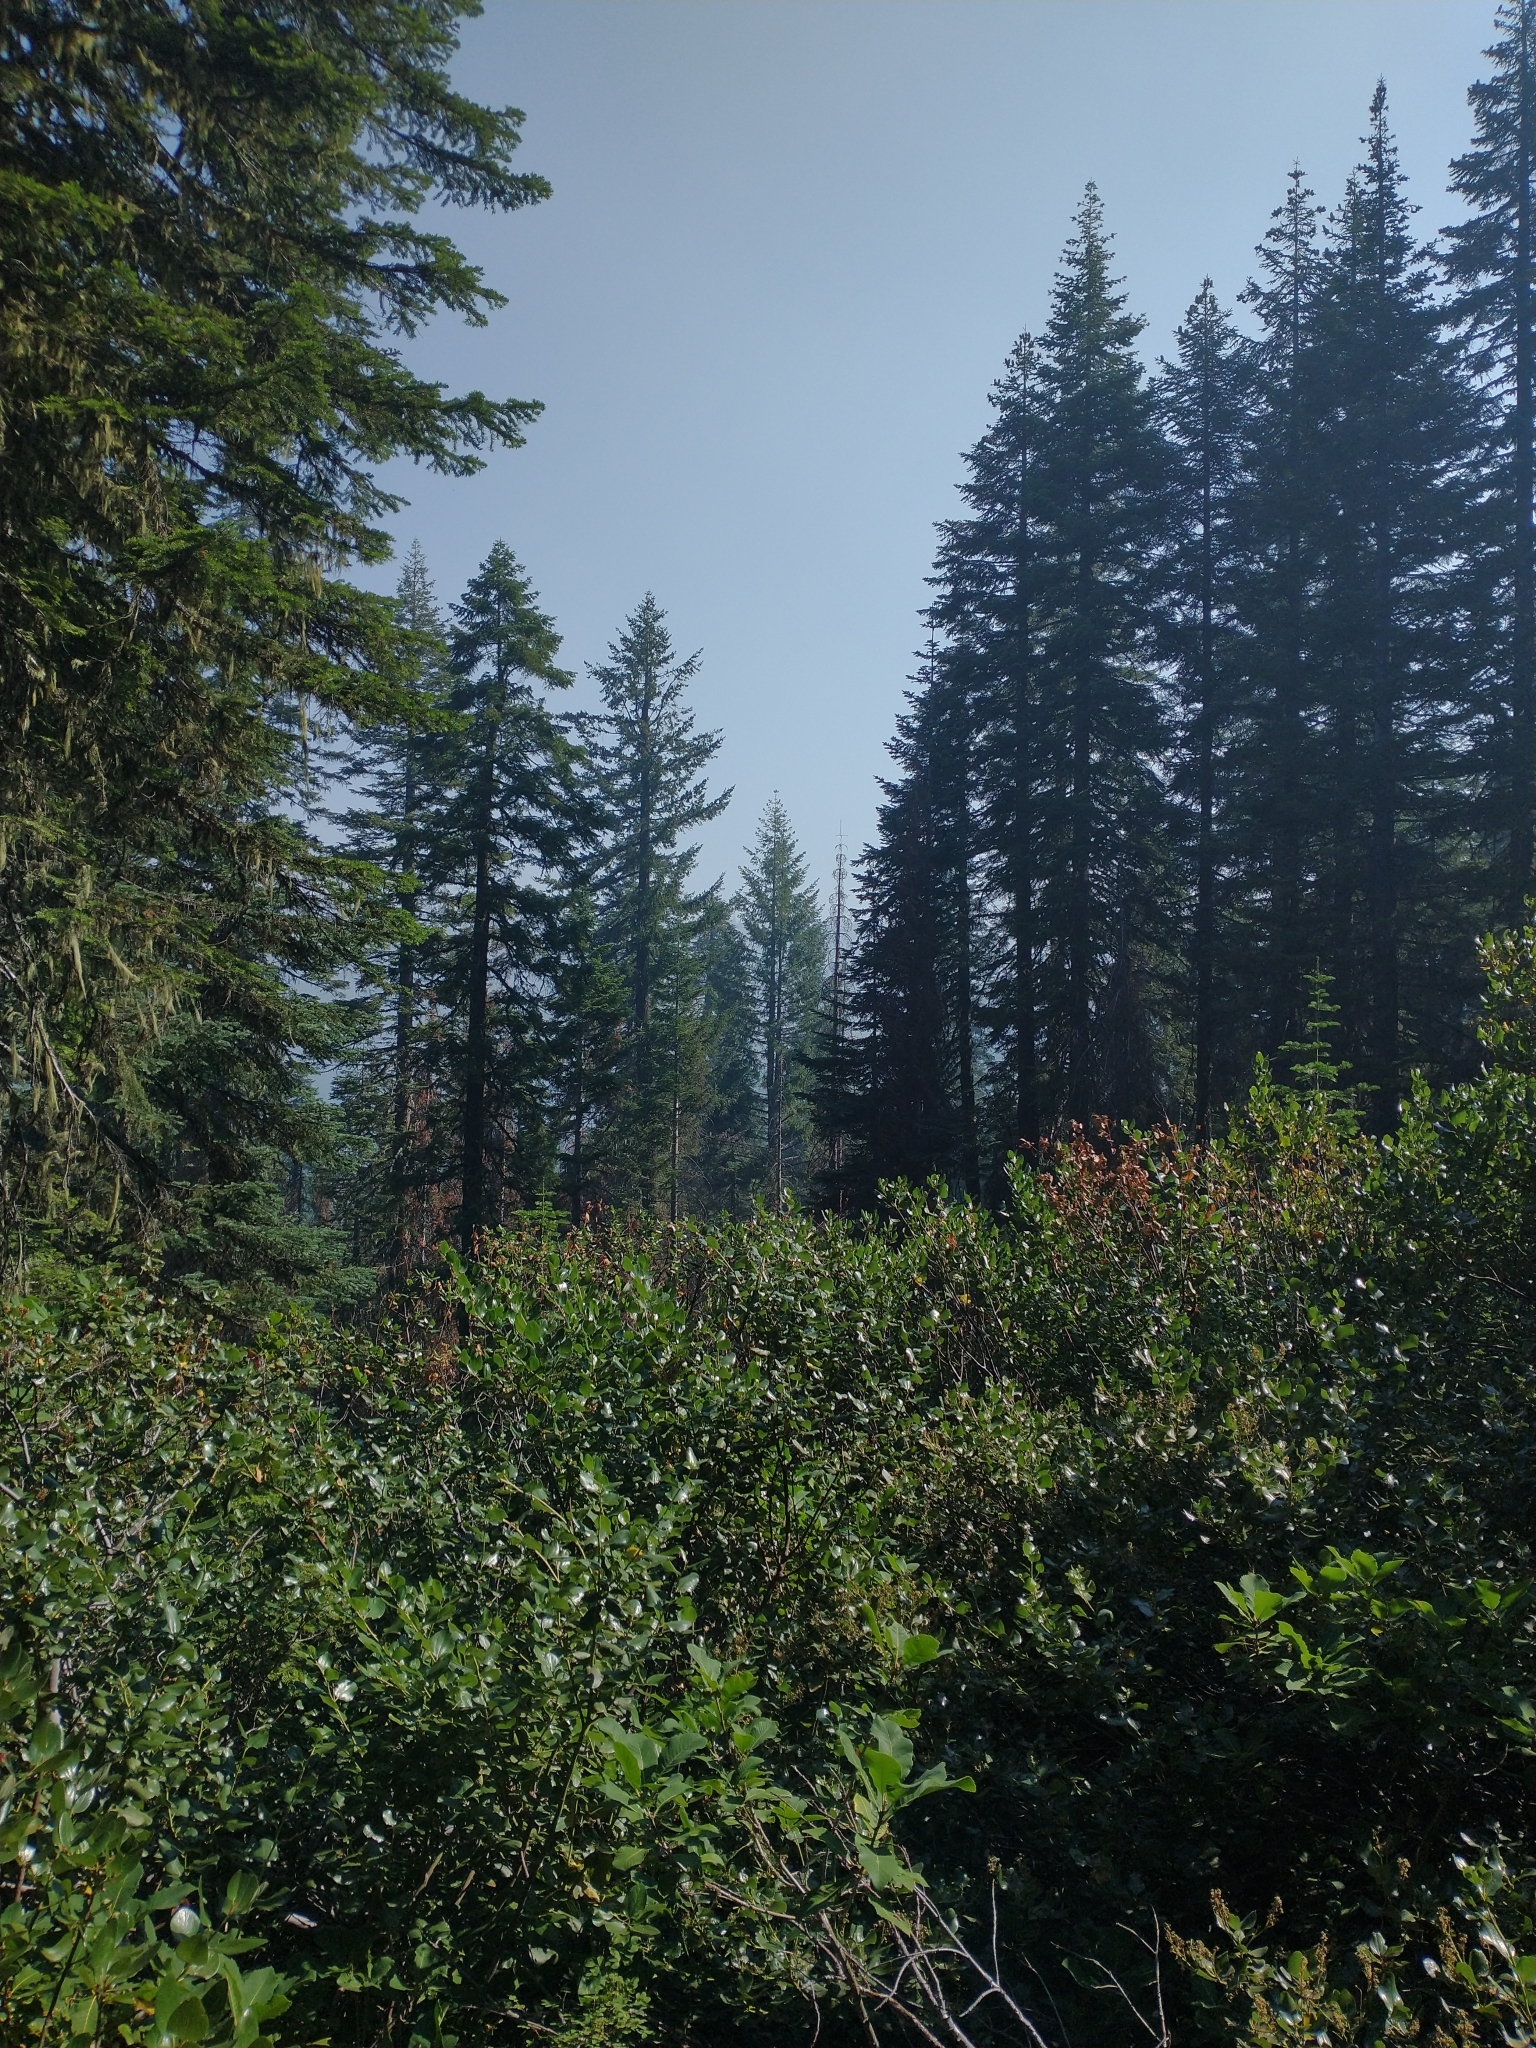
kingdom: Plantae
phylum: Tracheophyta
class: Magnoliopsida
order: Fagales
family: Fagaceae
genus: Quercus
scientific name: Quercus sadleriana
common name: Deer oak
